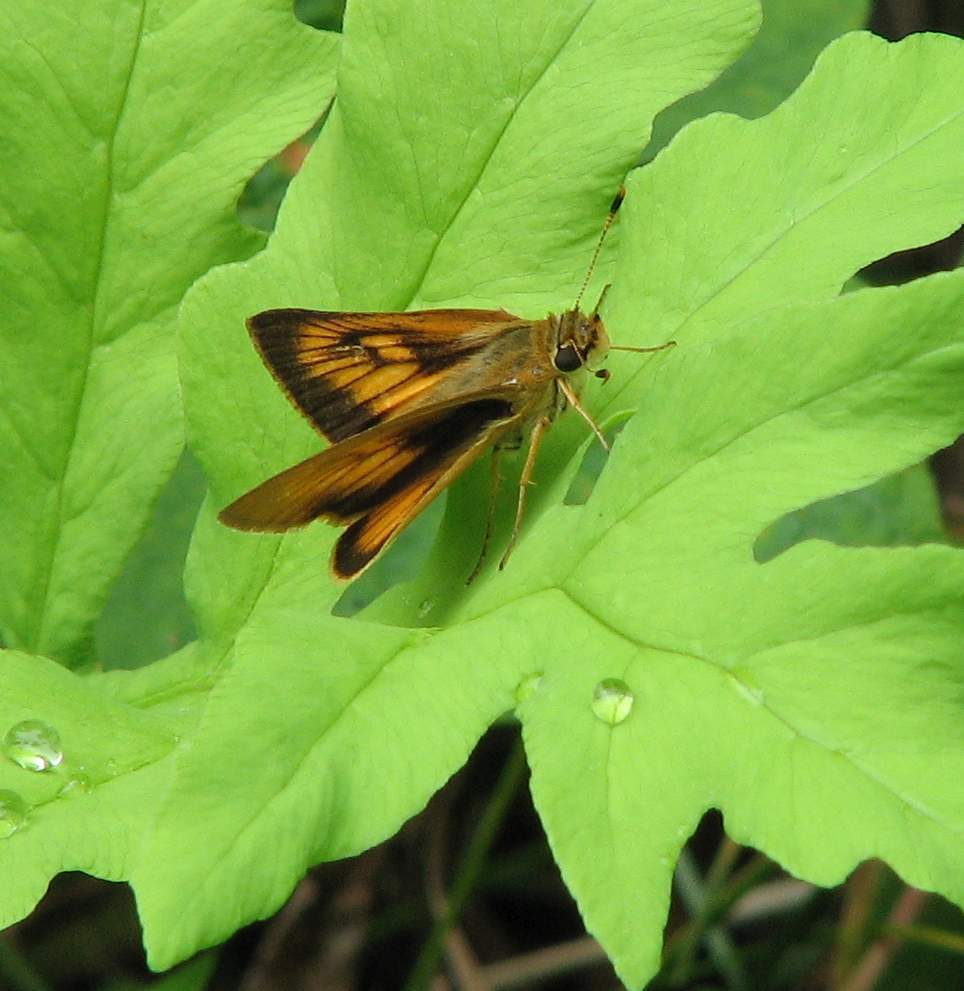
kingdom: Animalia
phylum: Arthropoda
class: Insecta
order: Lepidoptera
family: Hesperiidae
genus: Atrytone
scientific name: Atrytone delaware
